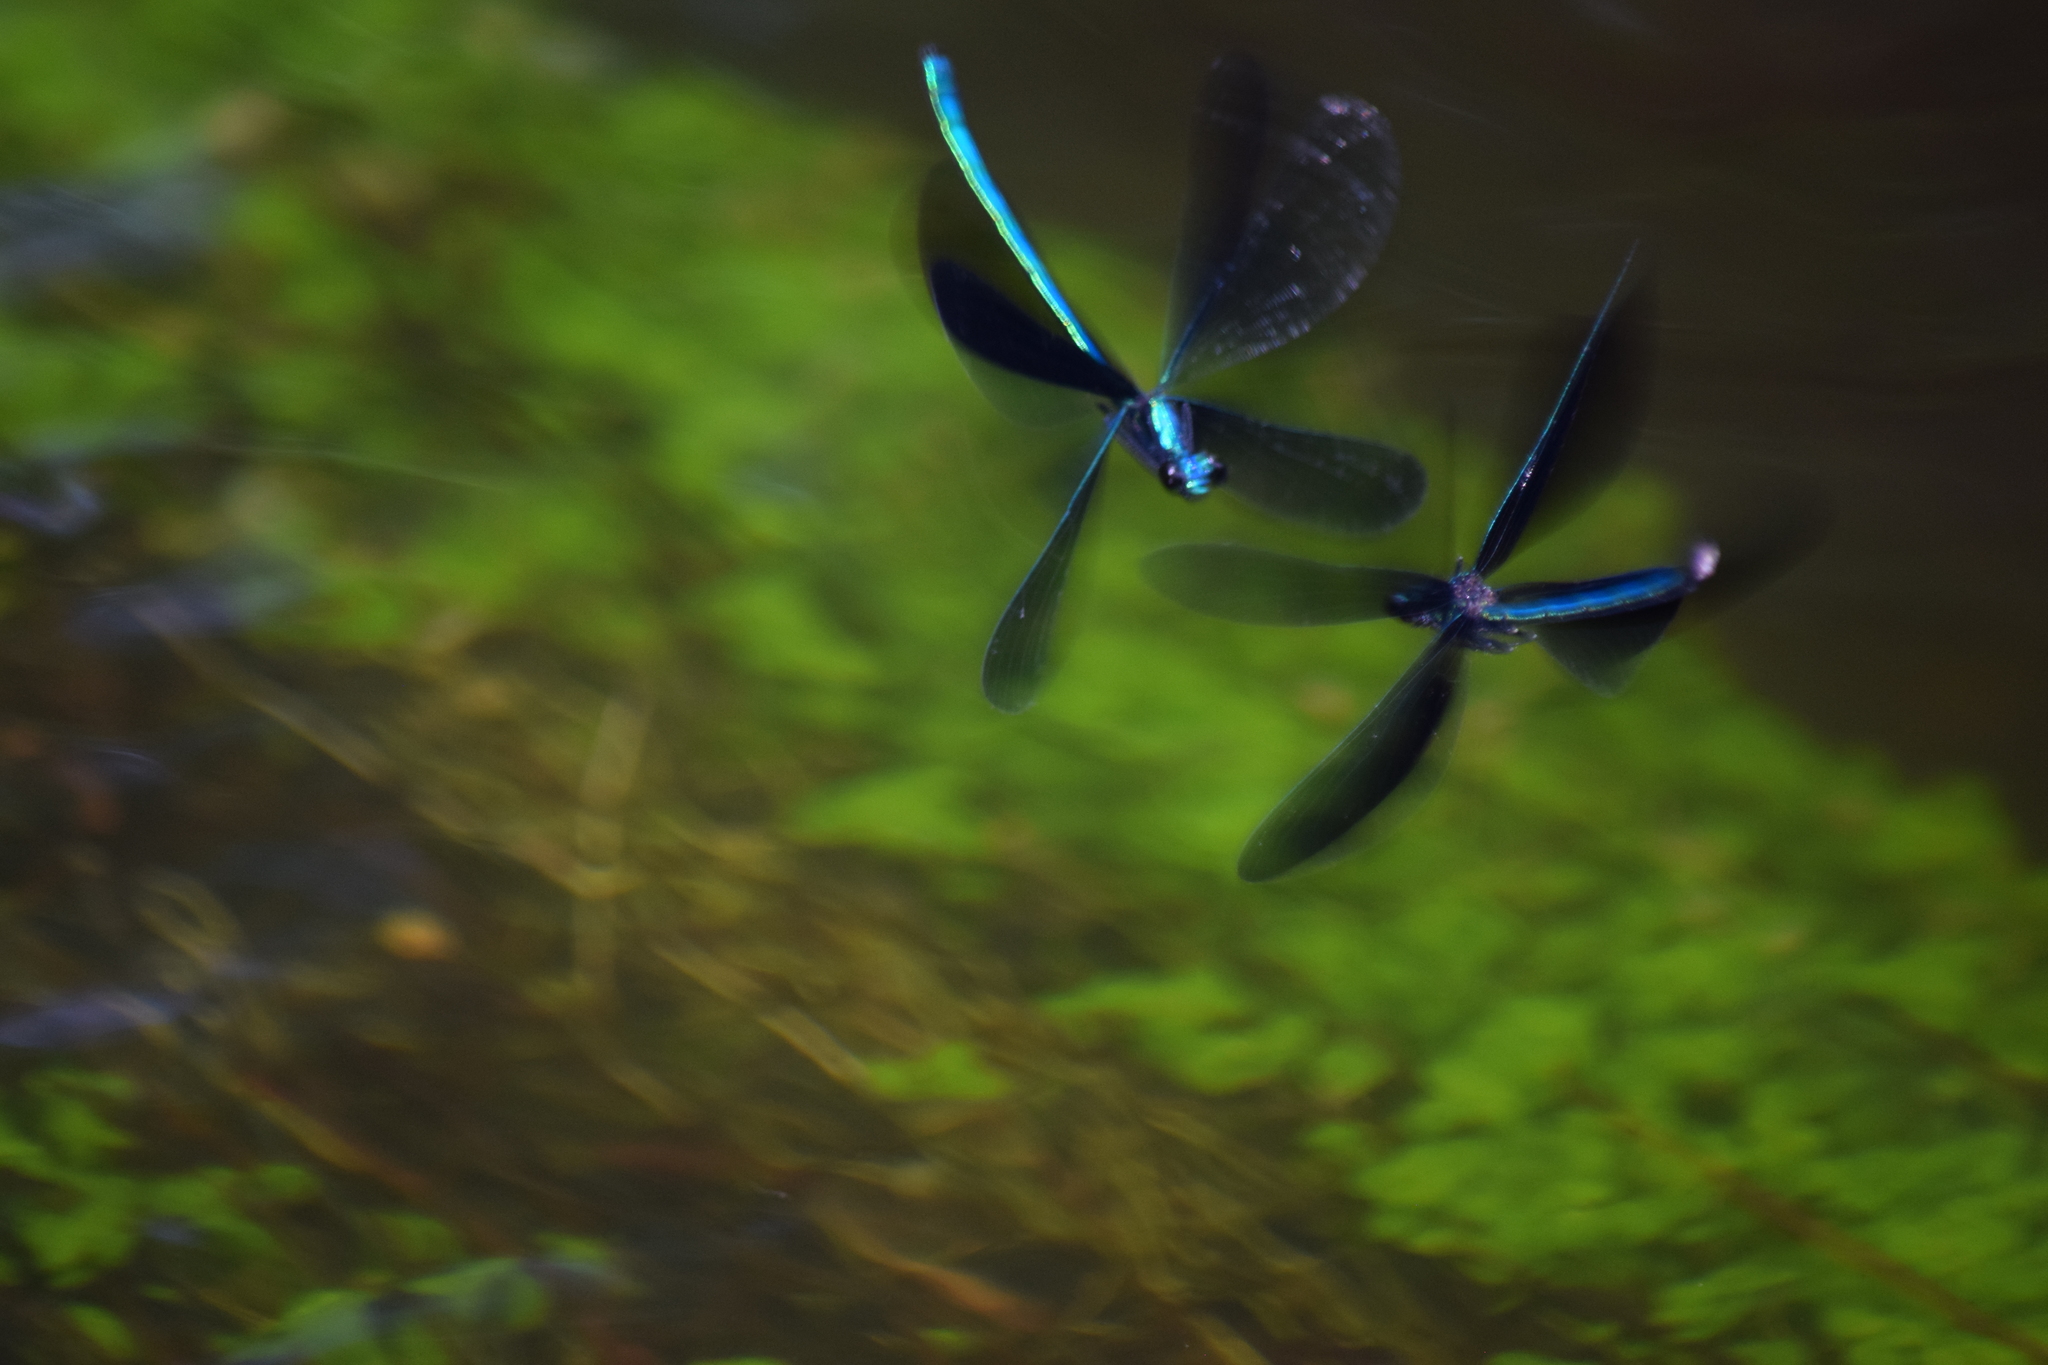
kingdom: Animalia
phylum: Arthropoda
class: Insecta
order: Odonata
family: Calopterygidae
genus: Calopteryx
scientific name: Calopteryx maculata
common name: Ebony jewelwing
